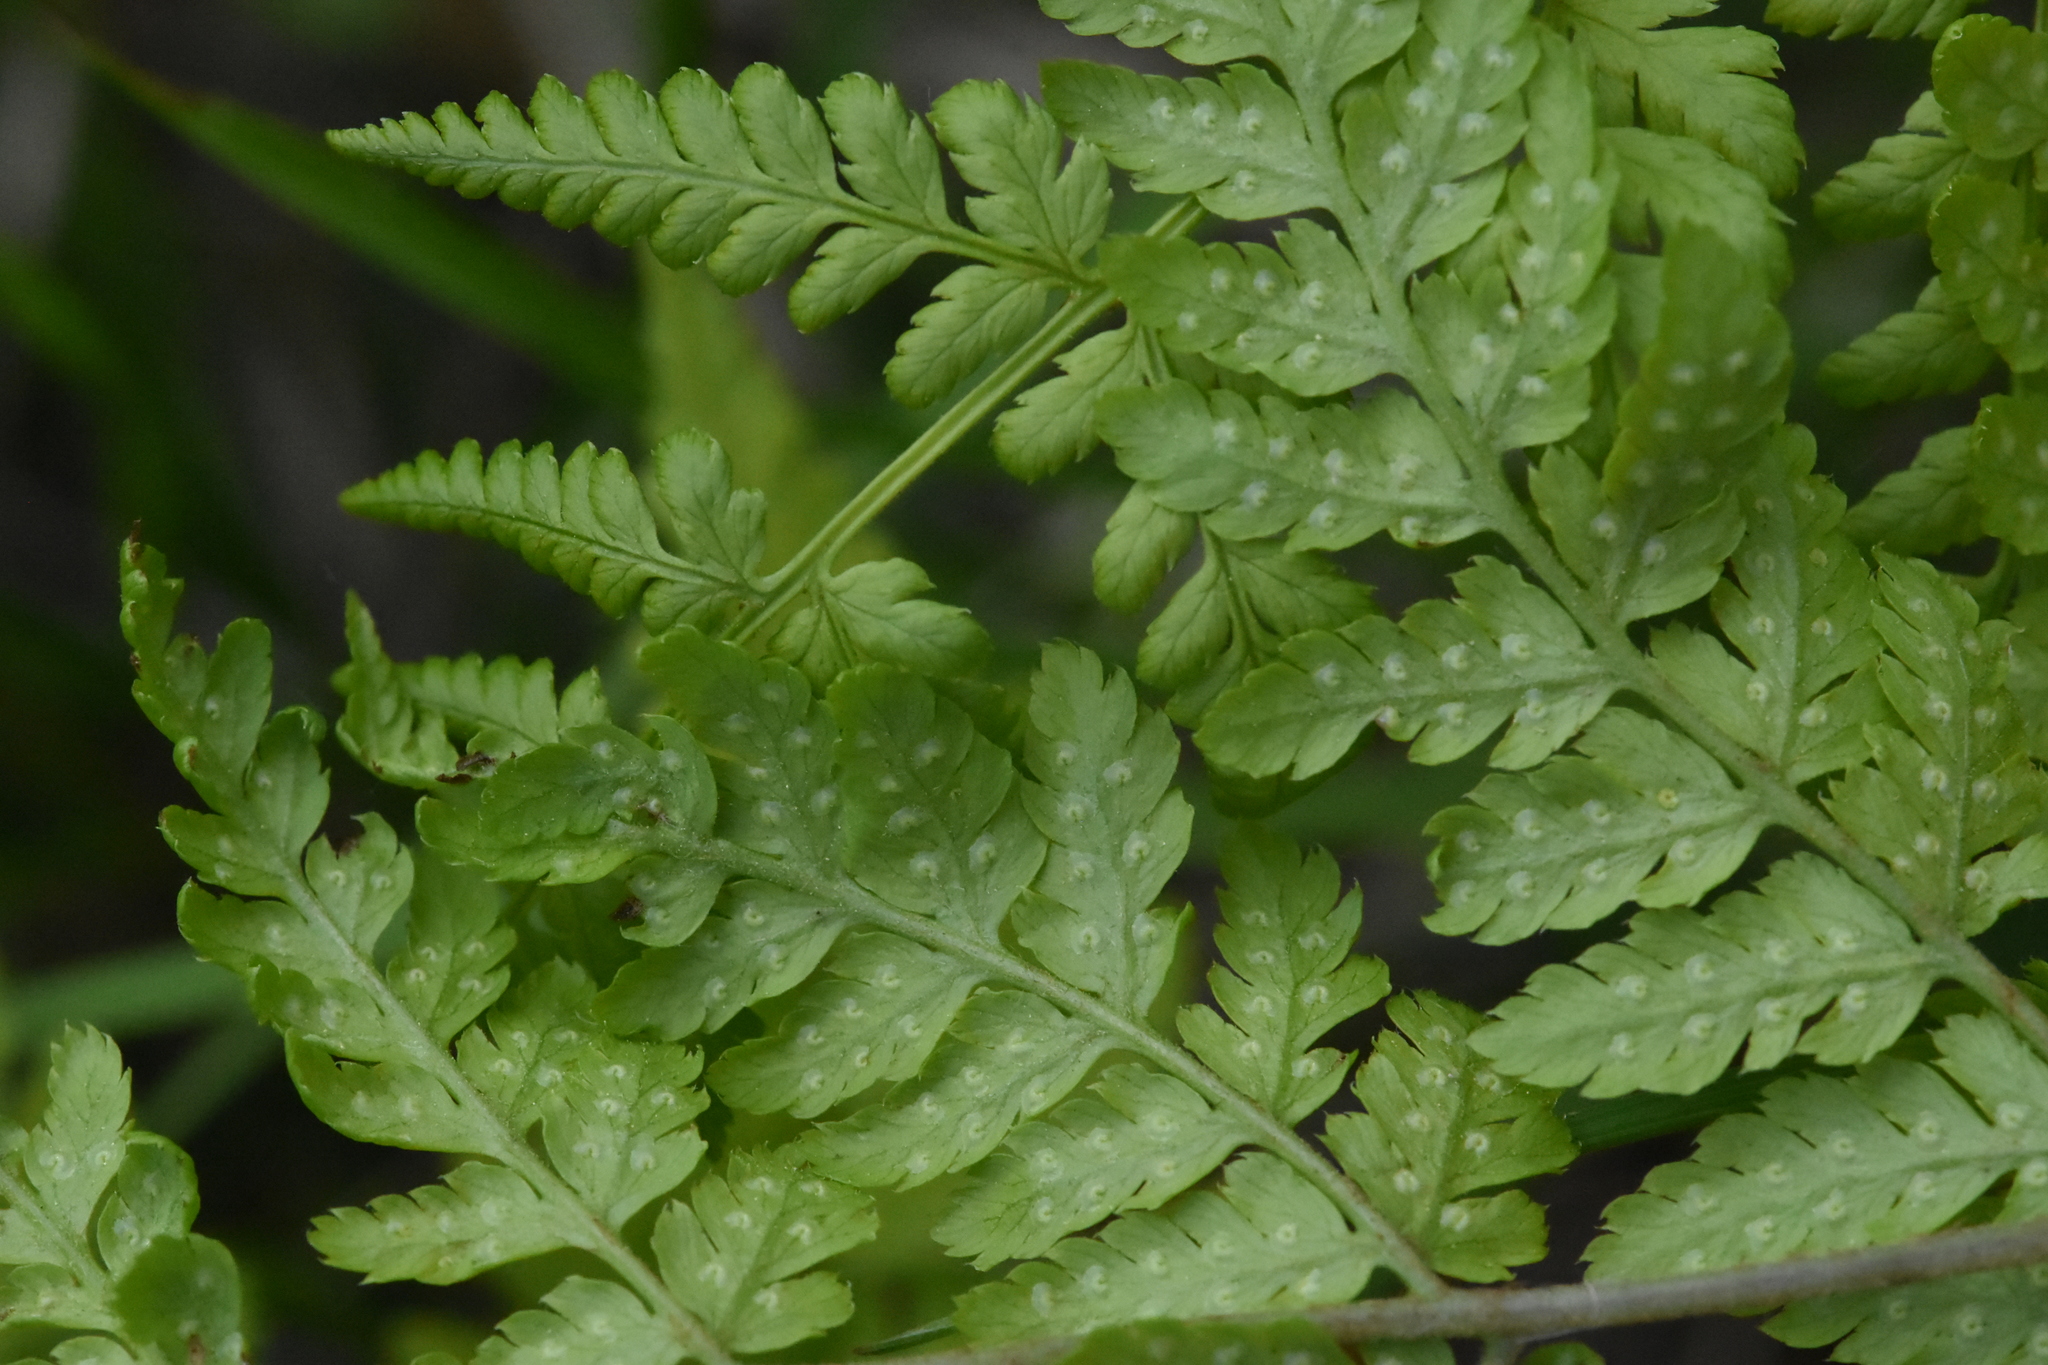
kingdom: Plantae
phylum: Tracheophyta
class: Polypodiopsida
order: Polypodiales
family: Dryopteridaceae
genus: Dryopteris
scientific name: Dryopteris carthusiana
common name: Narrow buckler-fern
